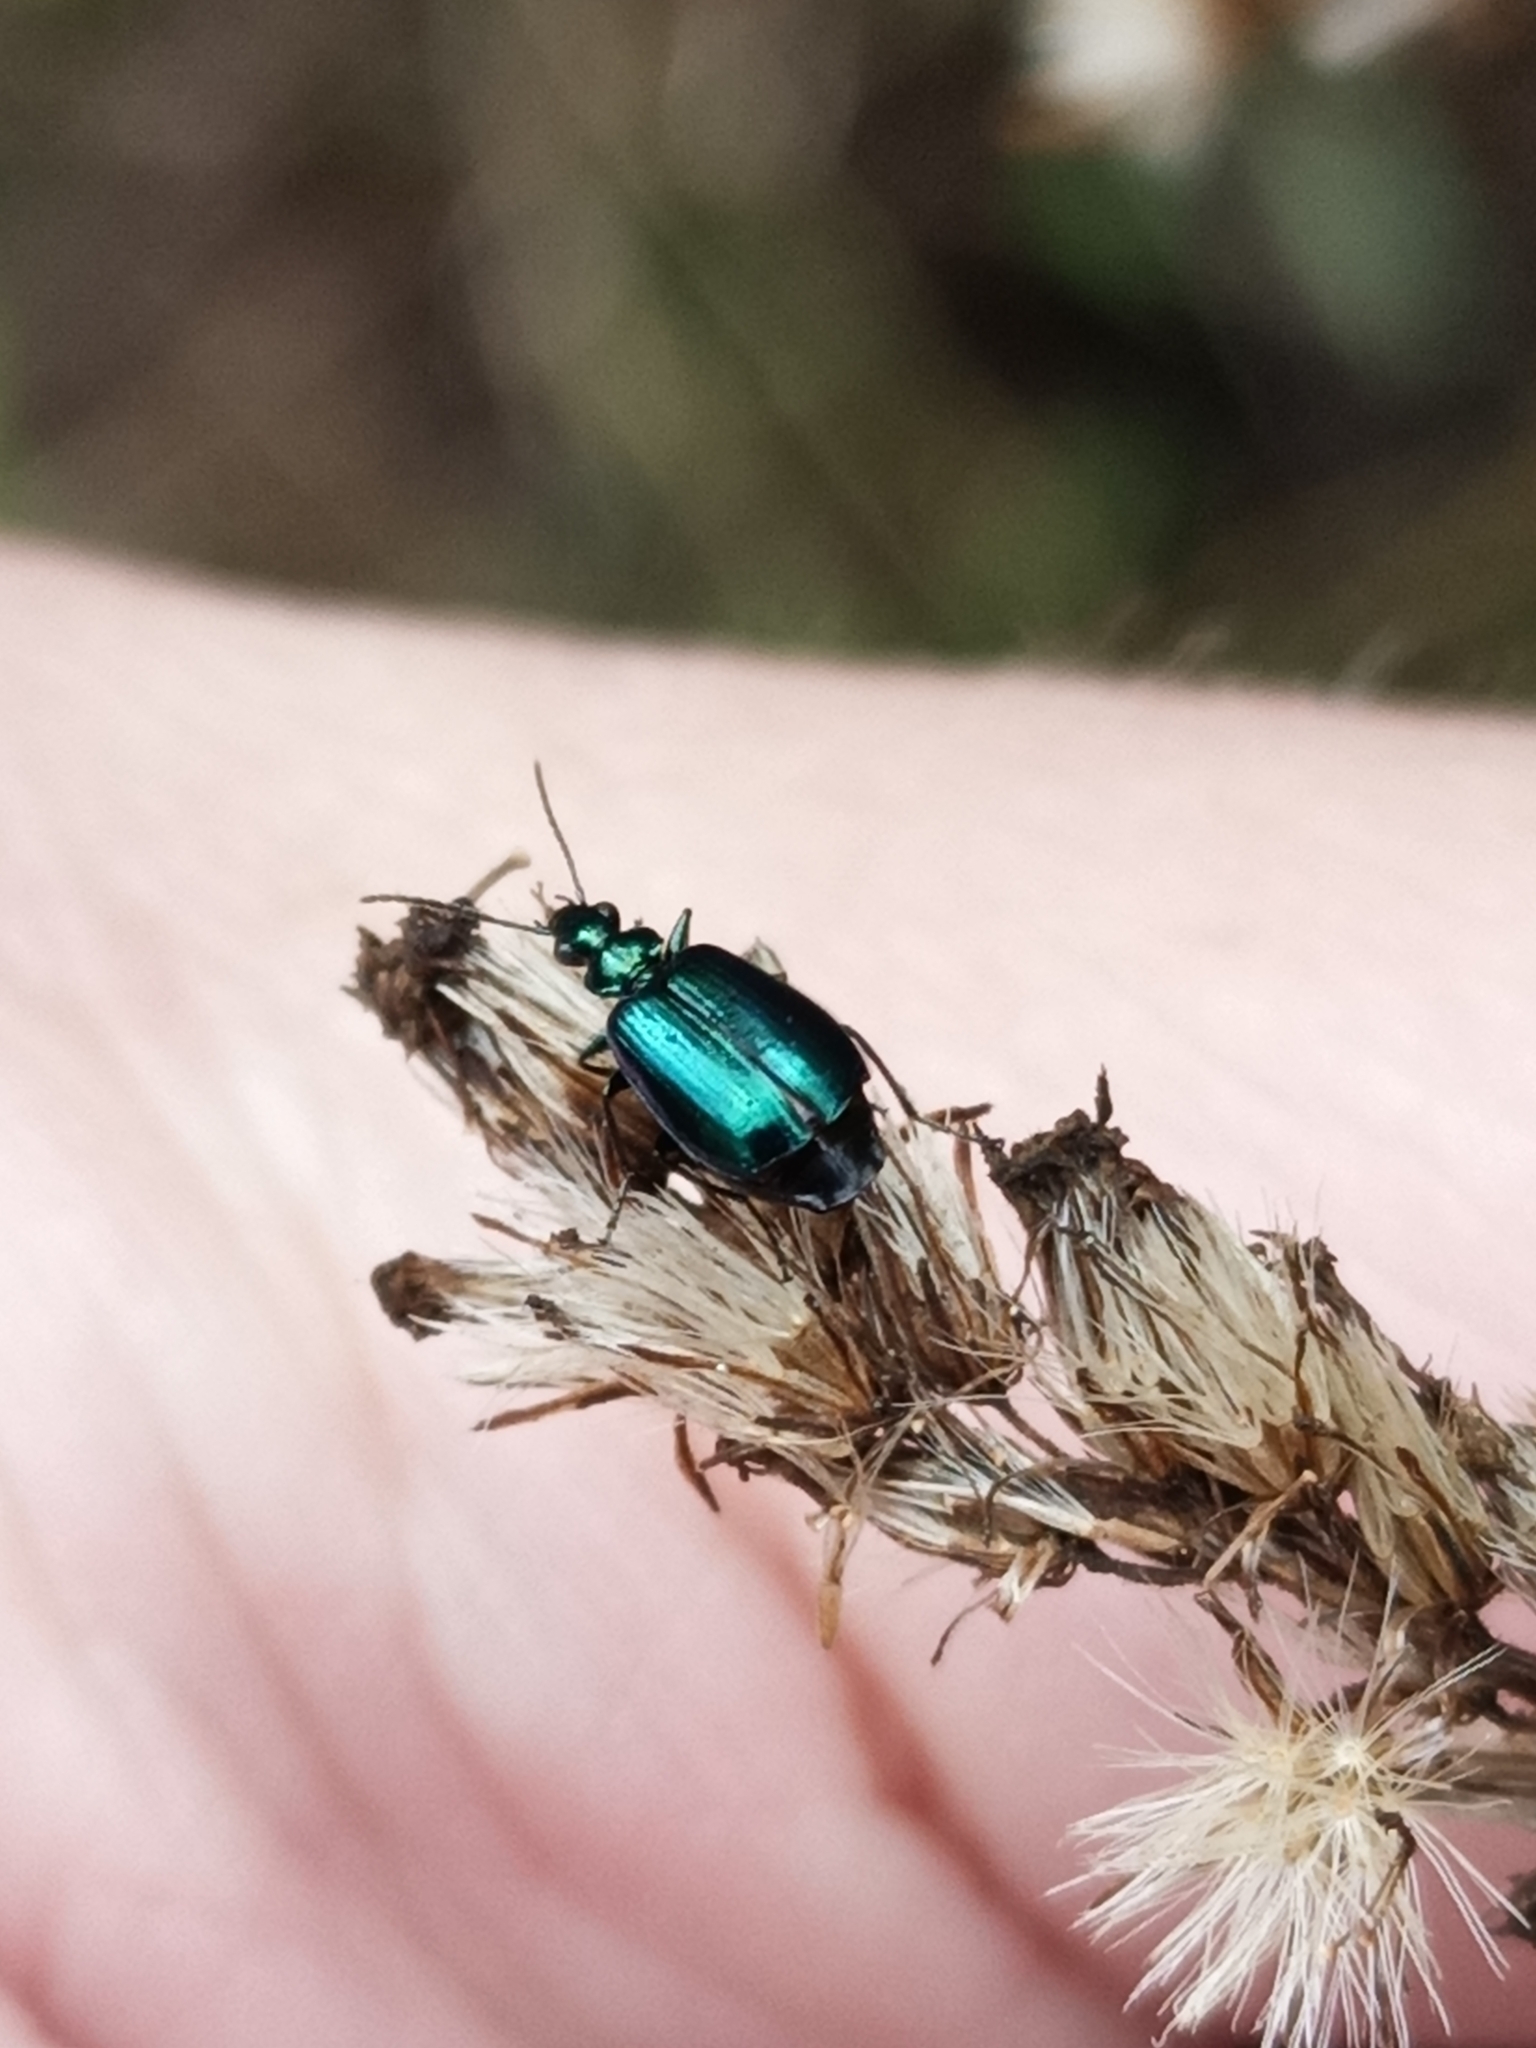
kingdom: Animalia
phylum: Arthropoda
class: Insecta
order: Coleoptera
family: Carabidae
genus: Lebia
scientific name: Lebia viridis
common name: Flower lebia beetle
